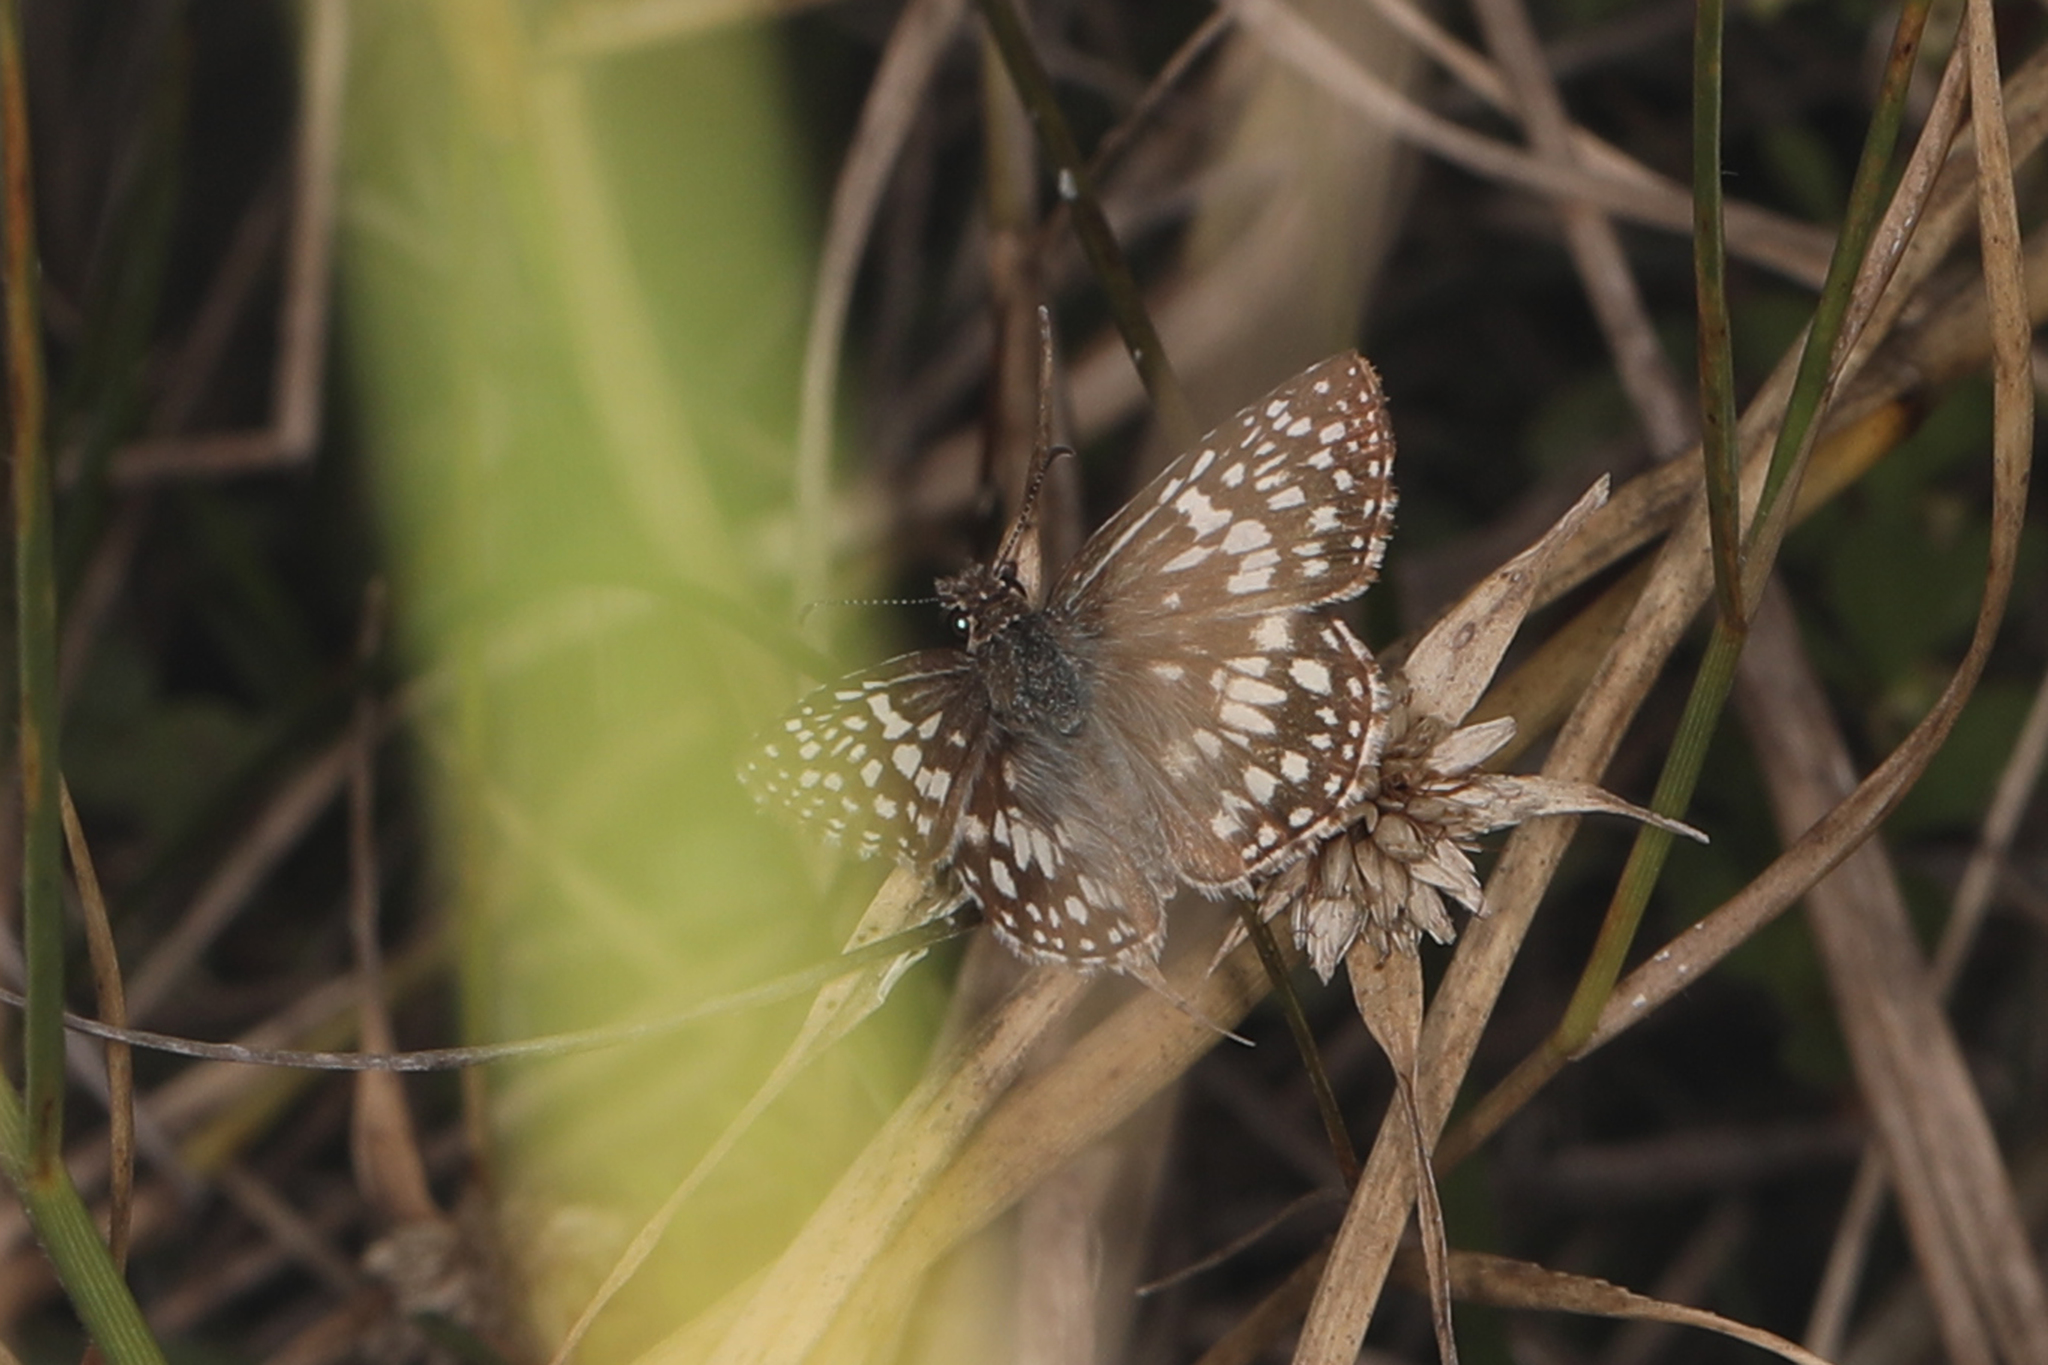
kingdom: Animalia
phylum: Arthropoda
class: Insecta
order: Lepidoptera
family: Hesperiidae
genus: Pyrgus
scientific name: Pyrgus oileus
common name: Tropical checkered-skipper
